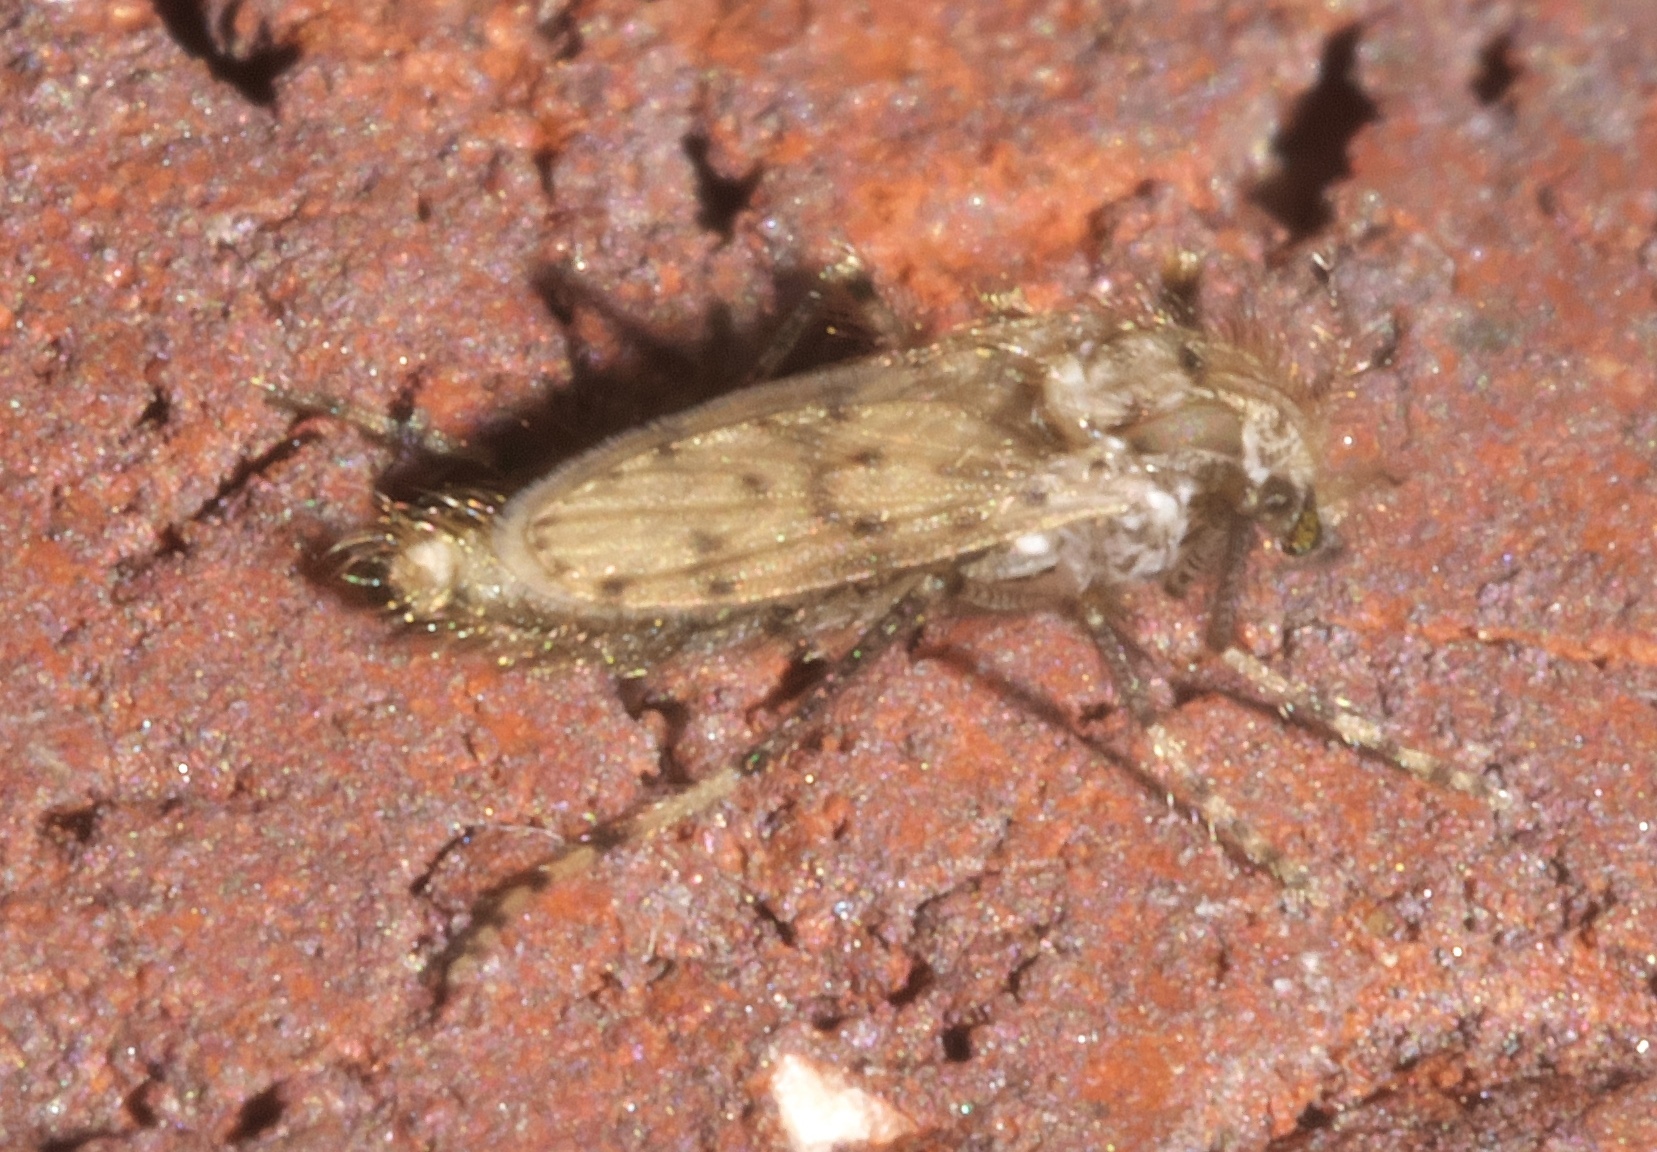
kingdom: Animalia
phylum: Arthropoda
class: Insecta
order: Diptera
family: Chaoboridae
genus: Chaoborus
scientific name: Chaoborus punctipennis
